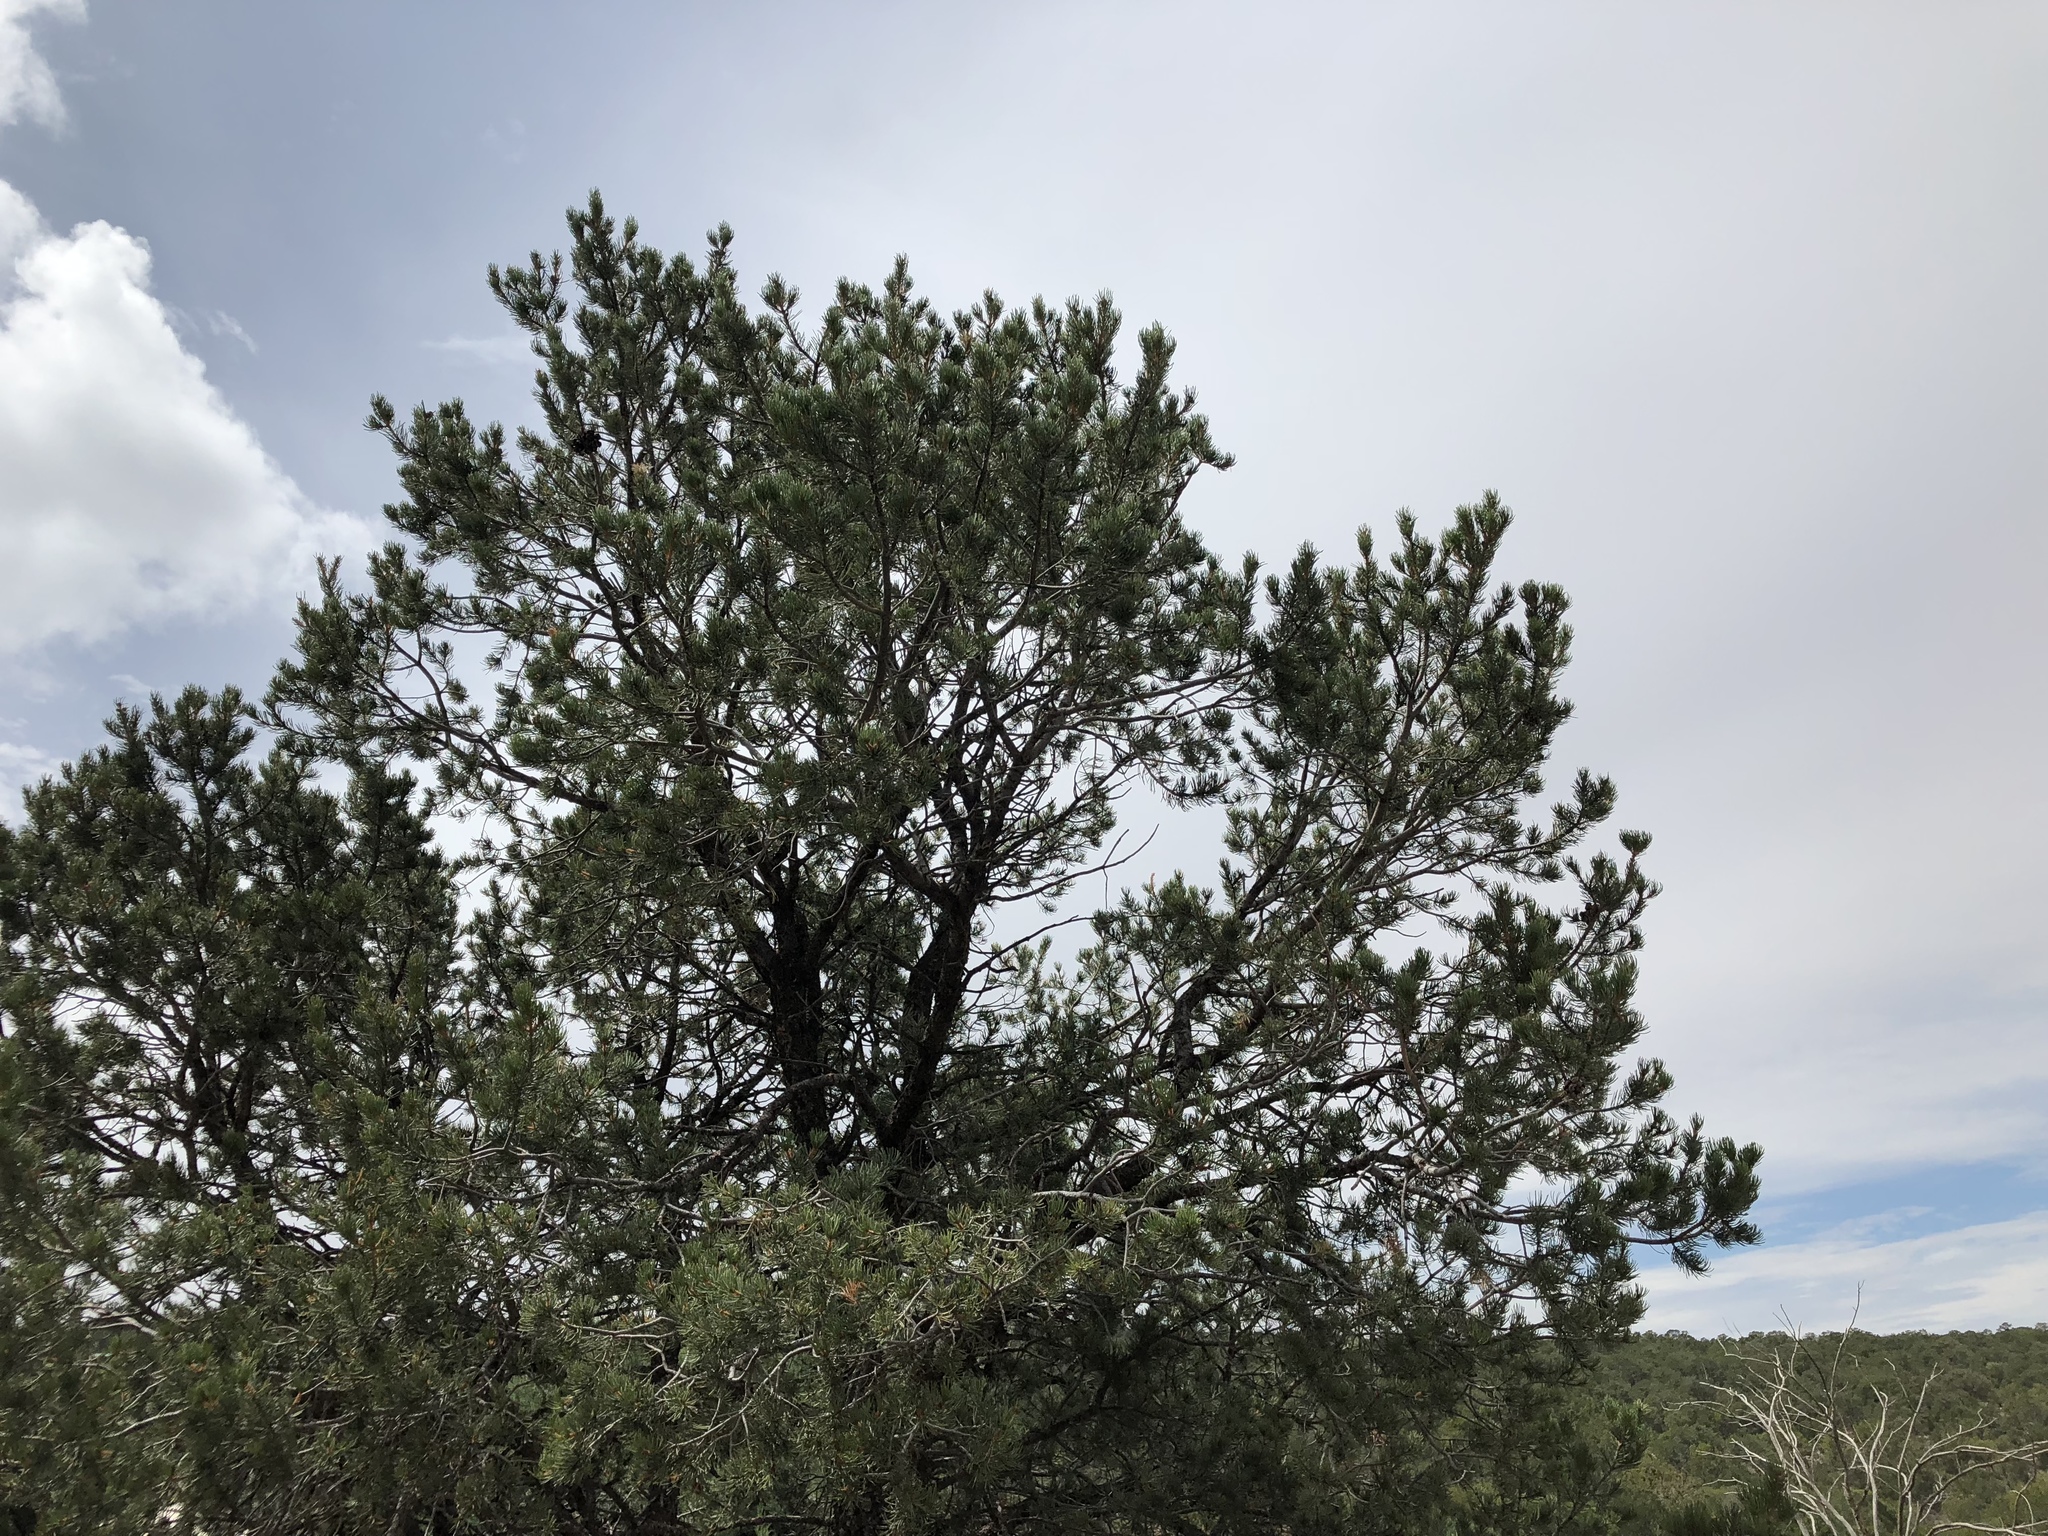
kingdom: Plantae
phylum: Tracheophyta
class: Pinopsida
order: Pinales
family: Pinaceae
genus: Pinus
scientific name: Pinus edulis
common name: Colorado pinyon
